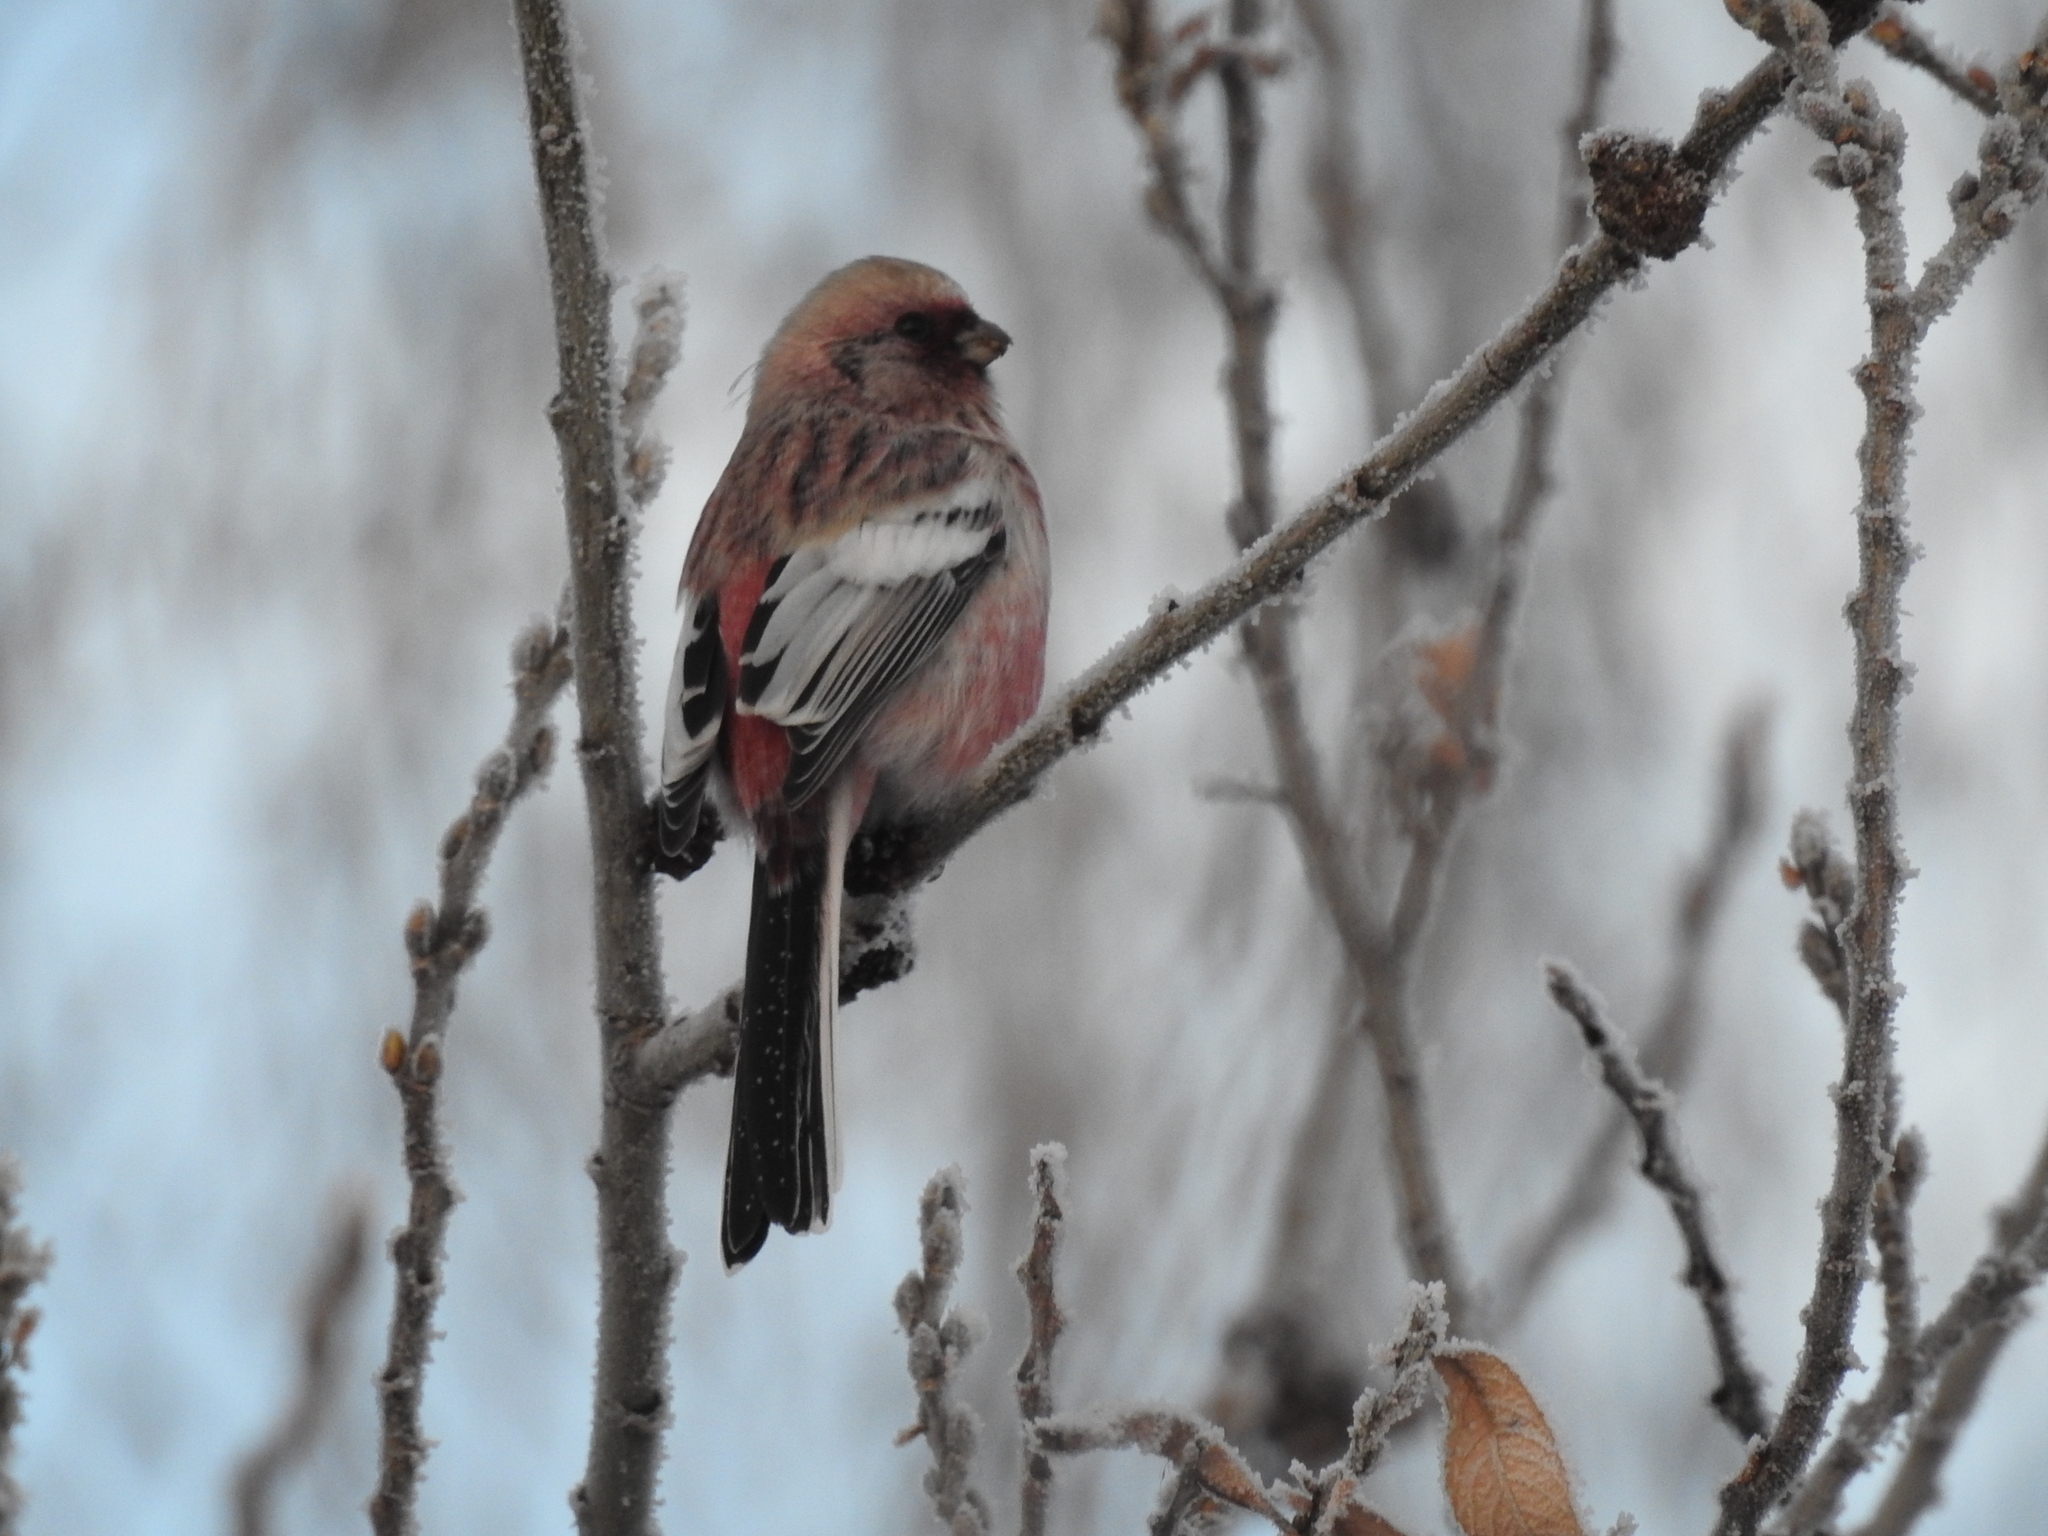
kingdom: Animalia
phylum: Chordata
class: Aves
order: Passeriformes
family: Fringillidae
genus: Carpodacus
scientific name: Carpodacus sibiricus
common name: Long-tailed rosefinch
